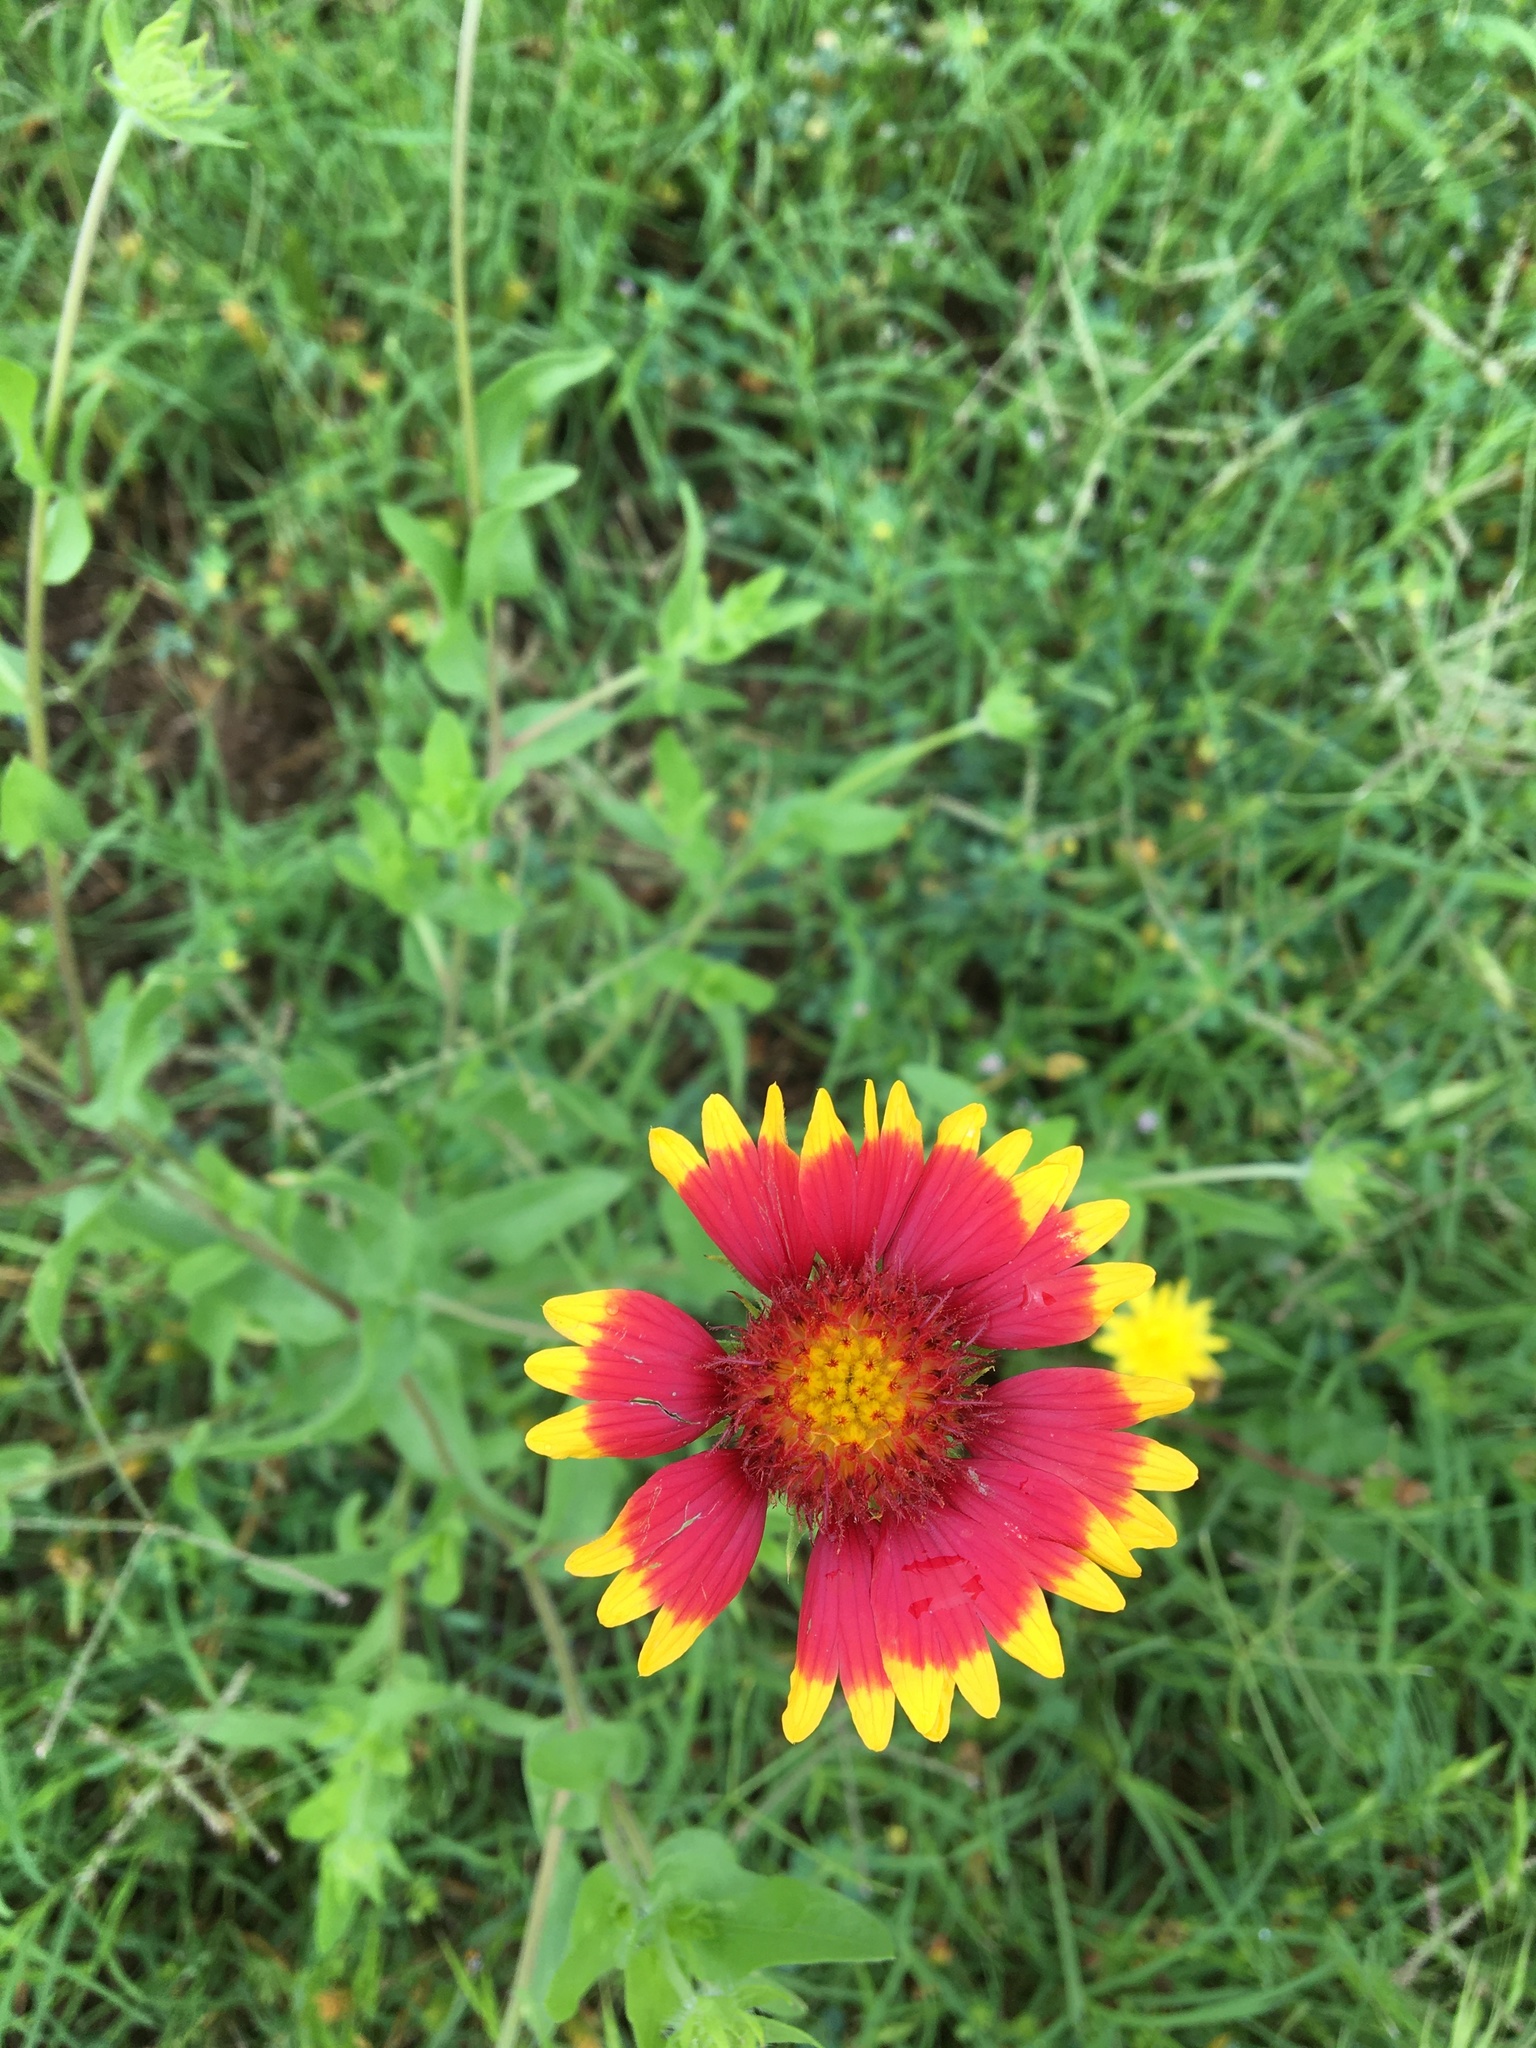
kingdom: Plantae
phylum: Tracheophyta
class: Magnoliopsida
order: Asterales
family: Asteraceae
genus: Gaillardia
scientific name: Gaillardia pulchella
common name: Firewheel
